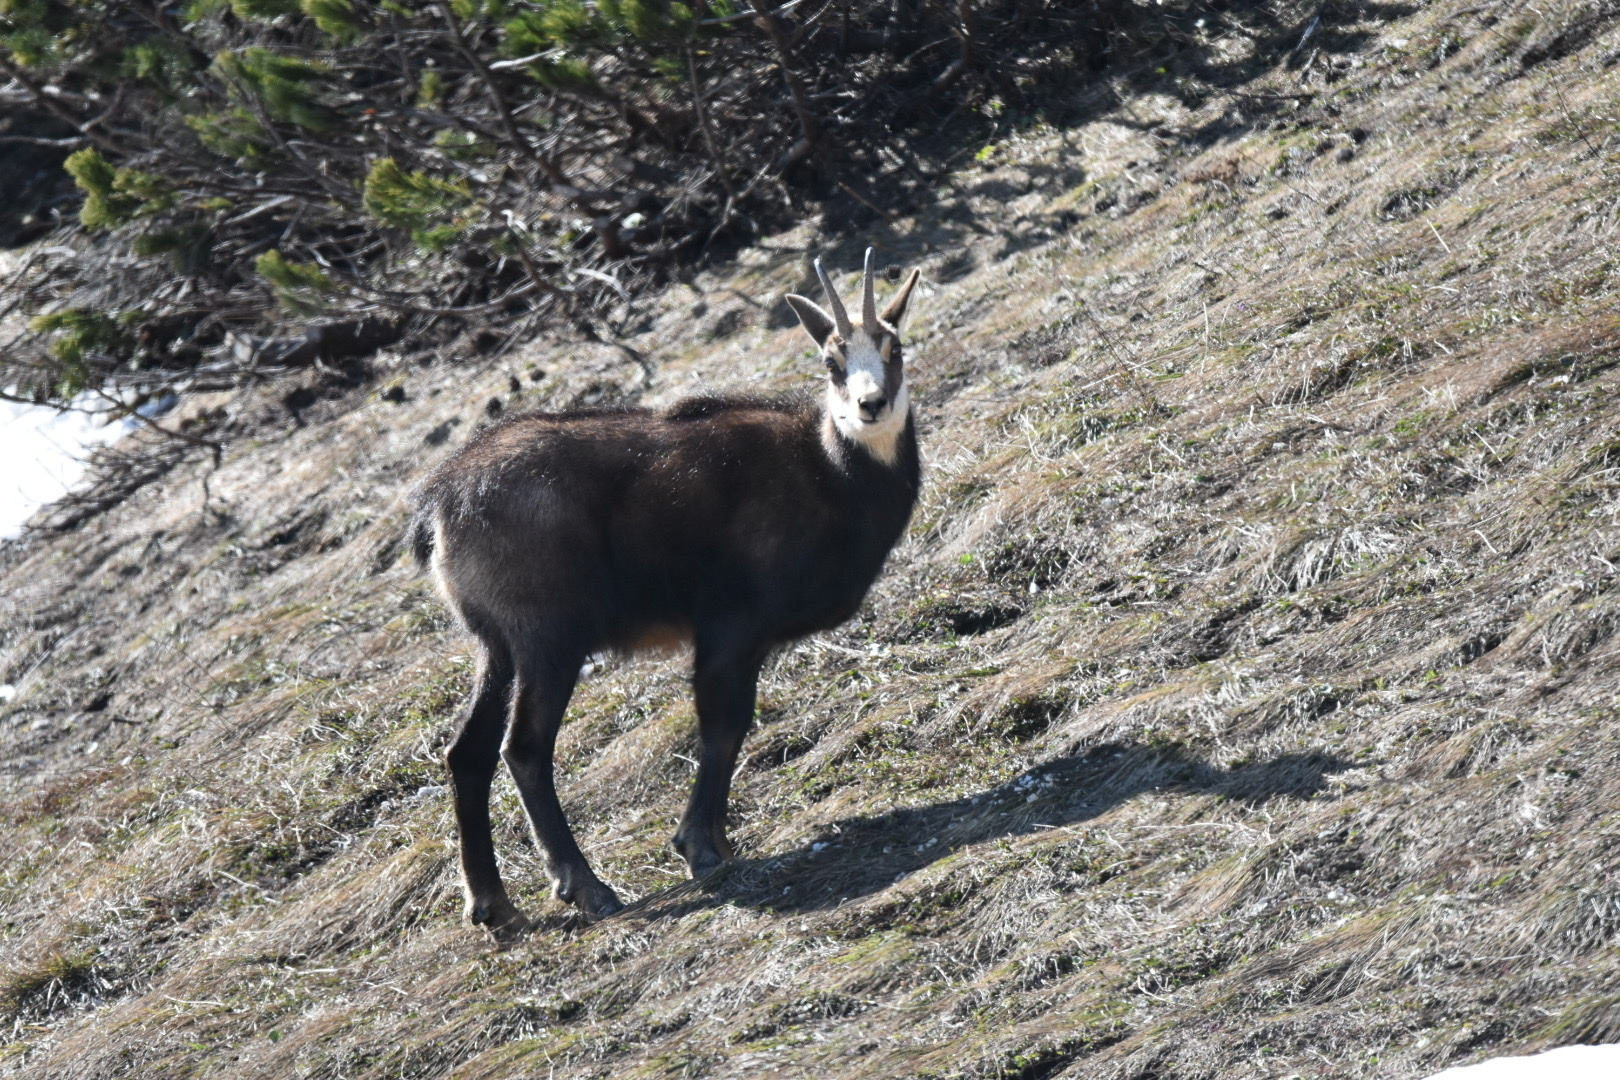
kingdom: Animalia
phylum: Chordata
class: Mammalia
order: Artiodactyla
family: Bovidae
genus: Rupicapra
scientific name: Rupicapra rupicapra
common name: Chamois
